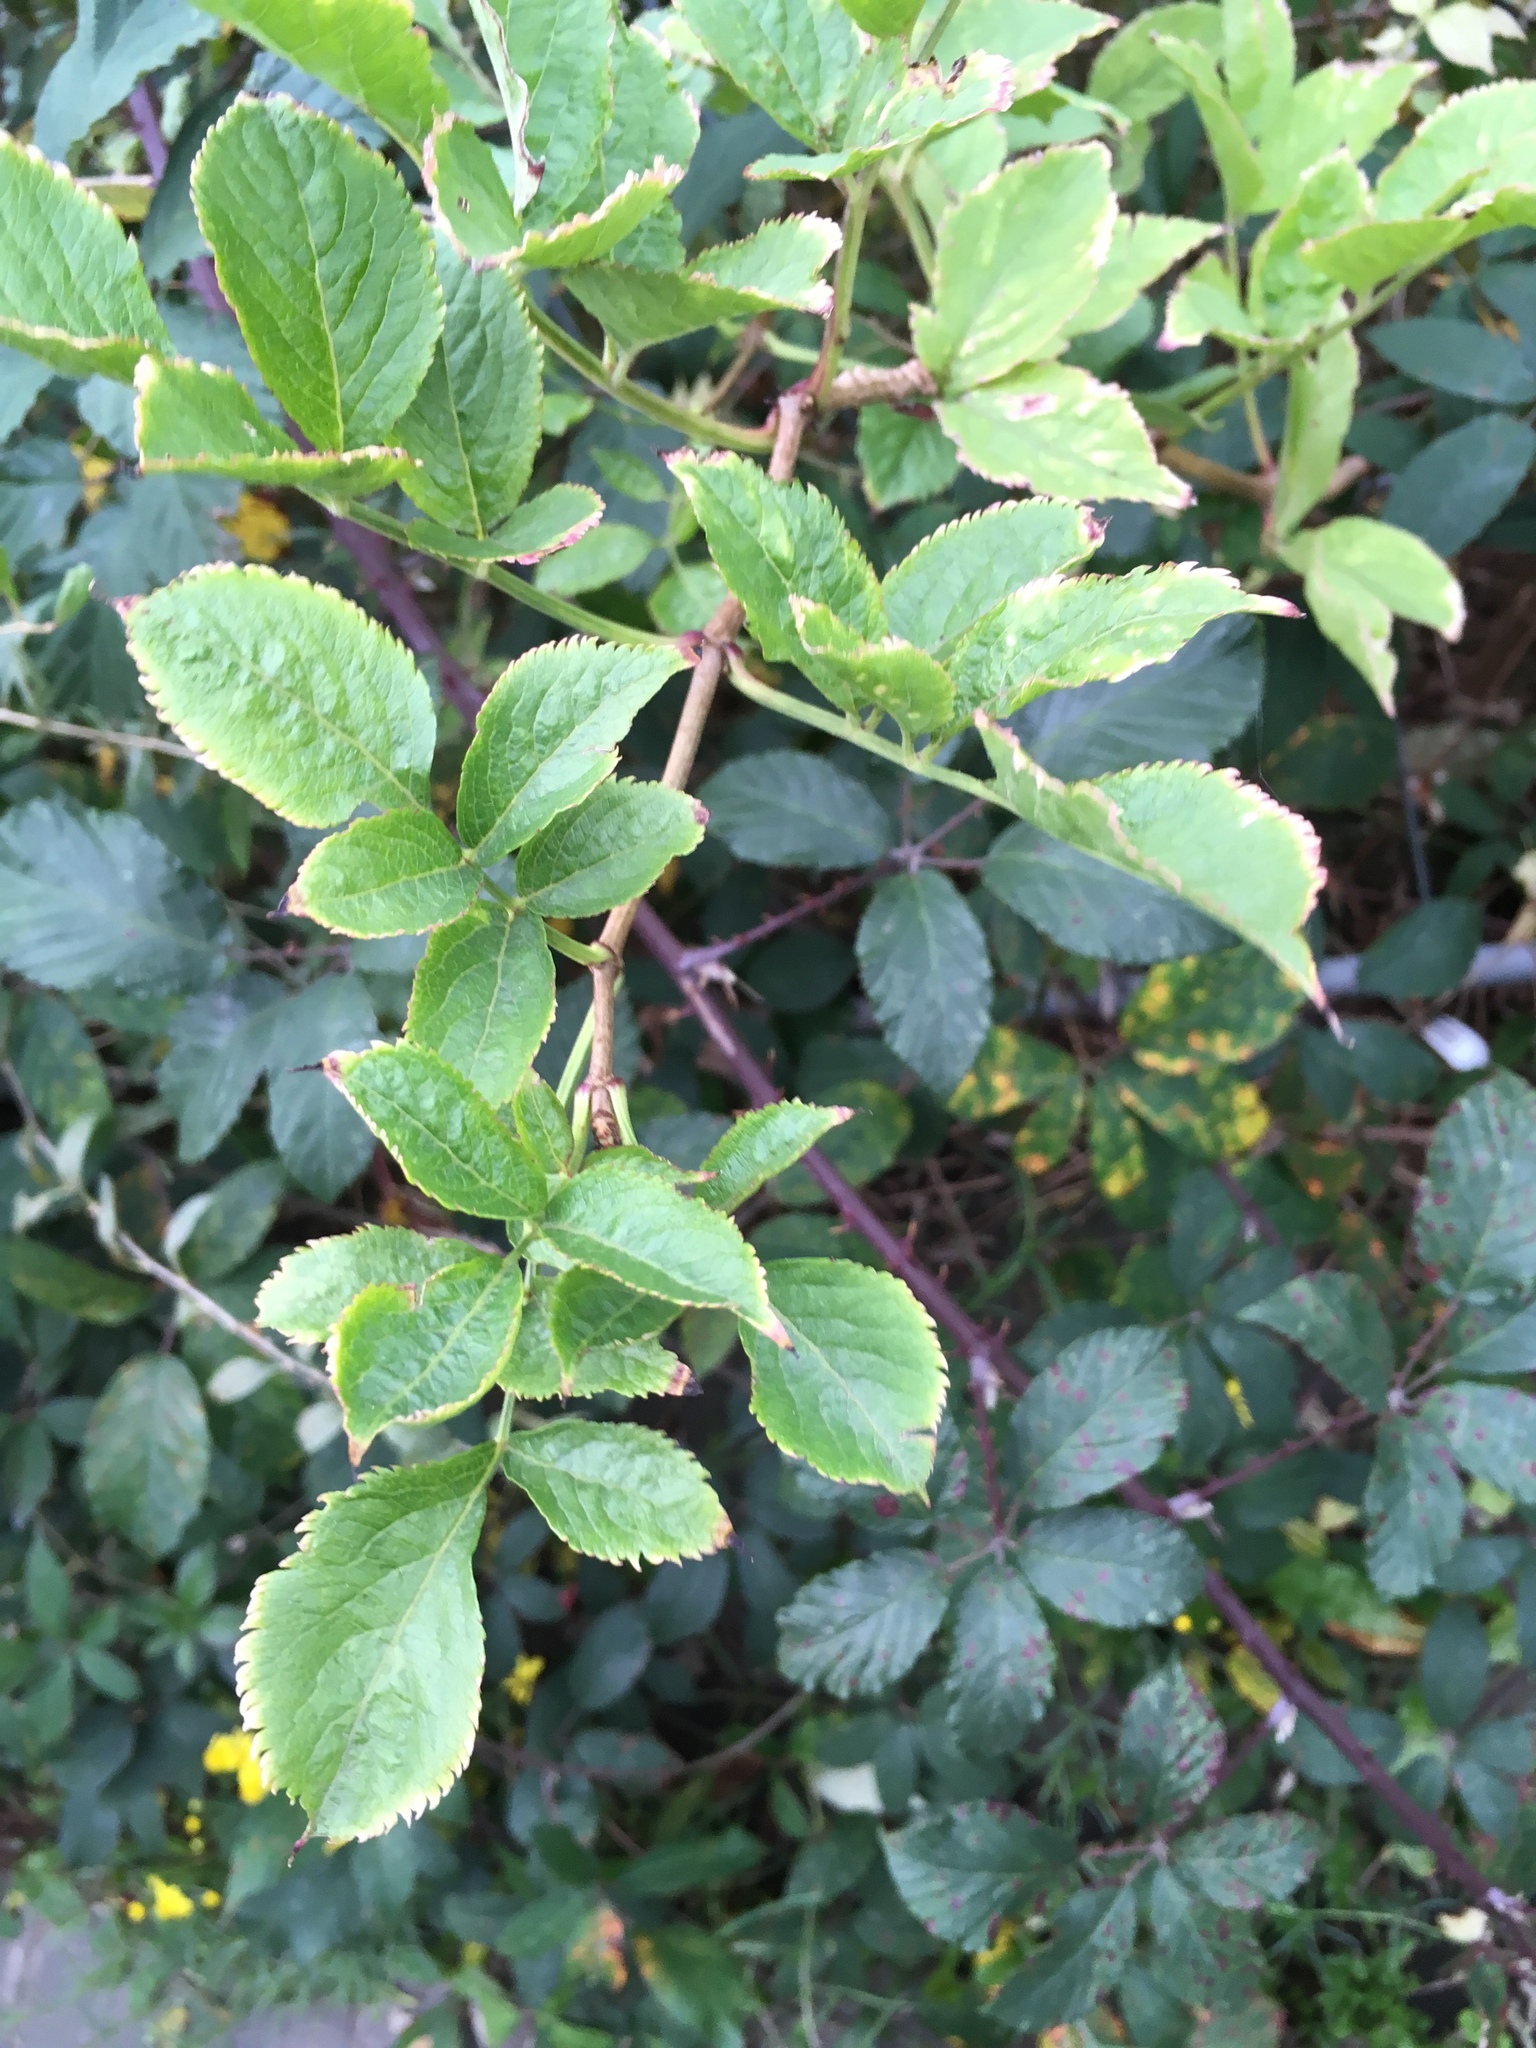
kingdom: Plantae
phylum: Tracheophyta
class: Magnoliopsida
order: Dipsacales
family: Viburnaceae
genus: Sambucus
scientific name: Sambucus nigra
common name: Elder
